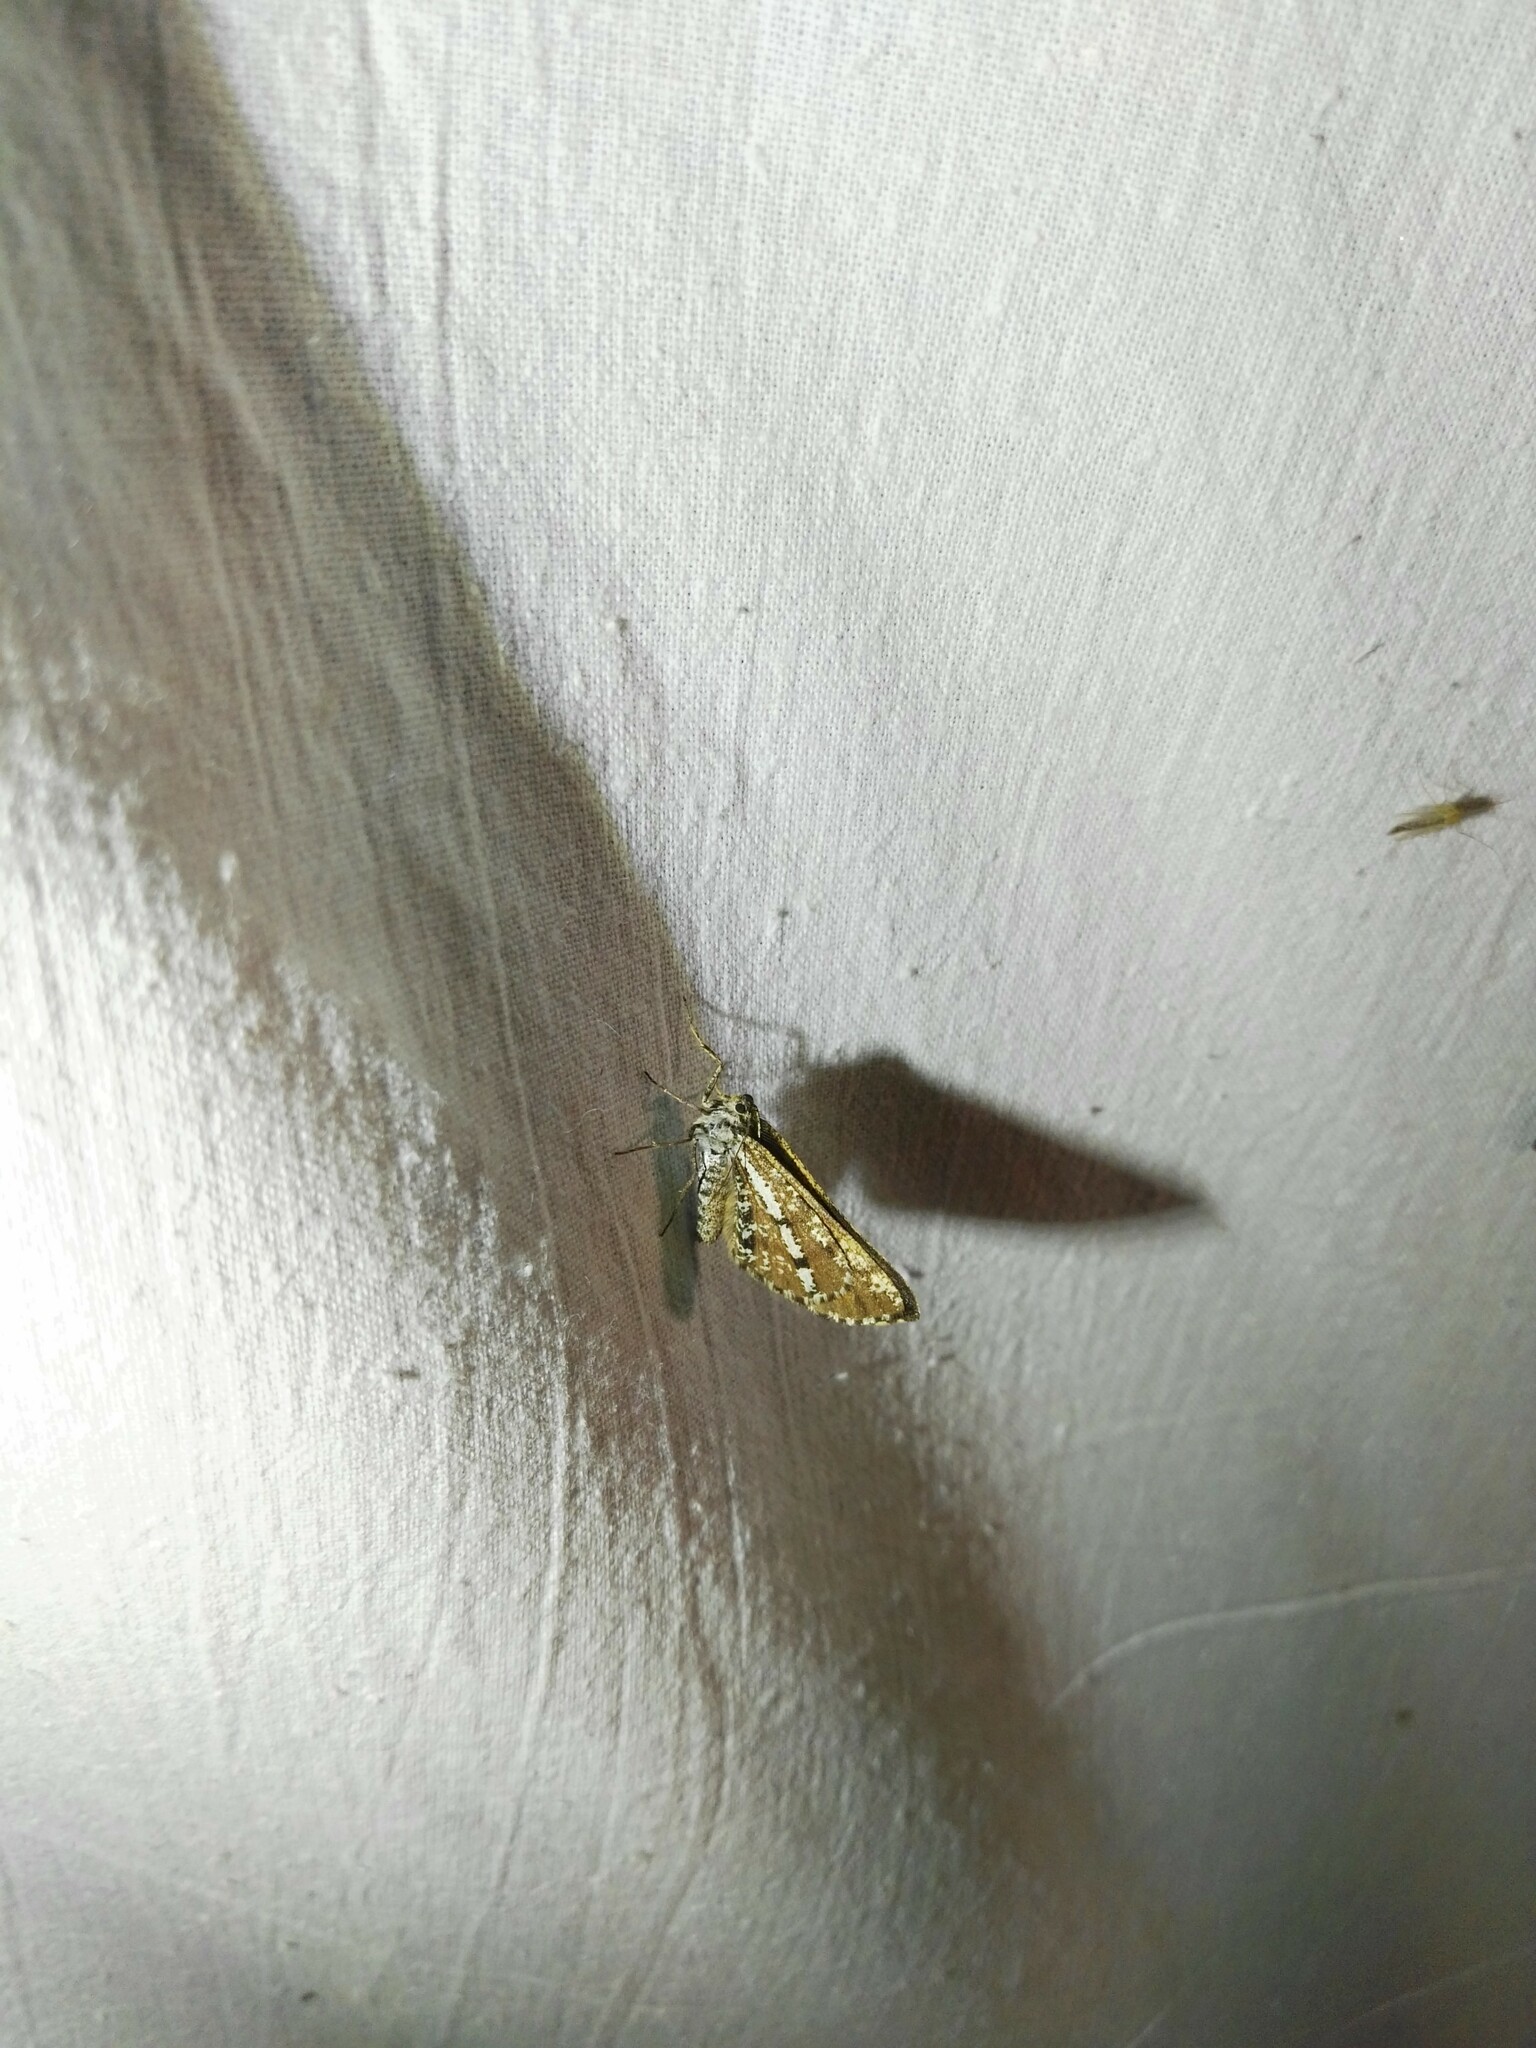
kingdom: Animalia
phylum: Arthropoda
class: Insecta
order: Lepidoptera
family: Geometridae
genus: Bupalus
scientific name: Bupalus piniaria
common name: Bordered white
